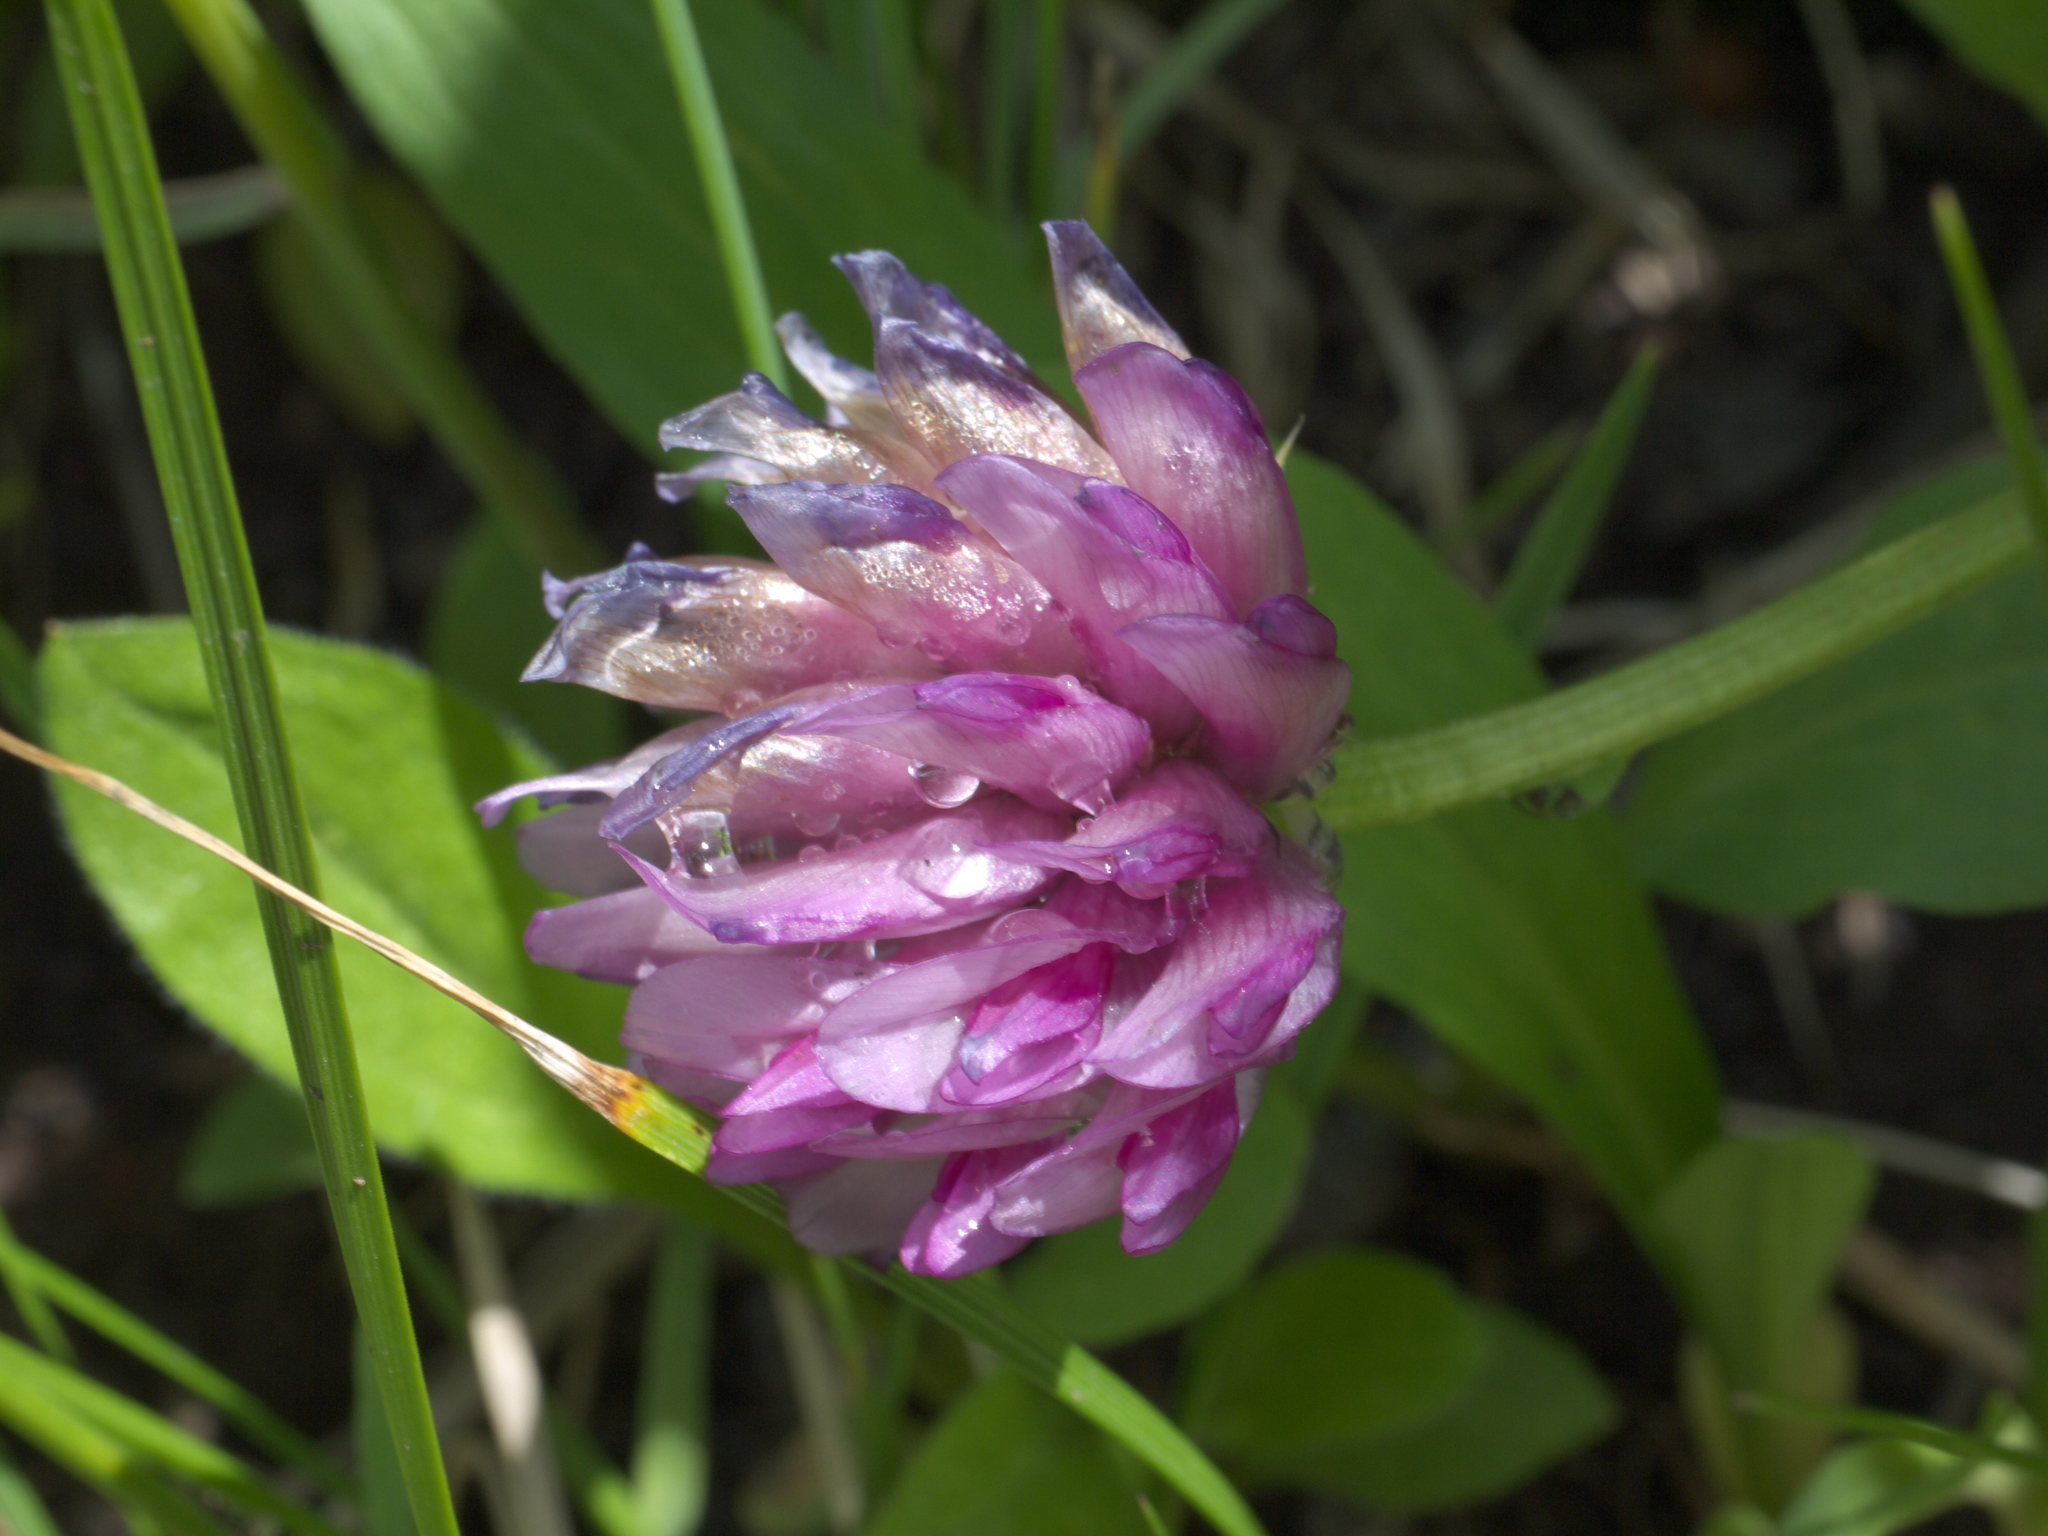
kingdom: Plantae
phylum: Tracheophyta
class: Magnoliopsida
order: Fabales
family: Fabaceae
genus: Trifolium
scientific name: Trifolium parryi
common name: Parry's clover
